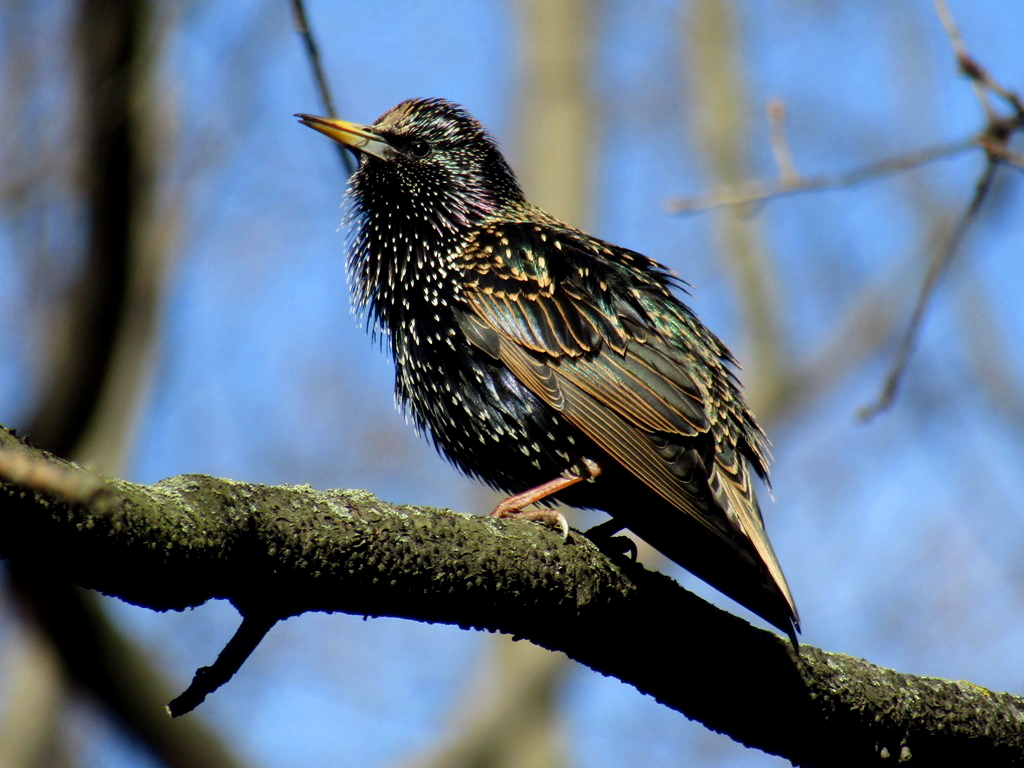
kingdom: Animalia
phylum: Chordata
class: Aves
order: Passeriformes
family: Sturnidae
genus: Sturnus
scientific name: Sturnus vulgaris
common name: Common starling
